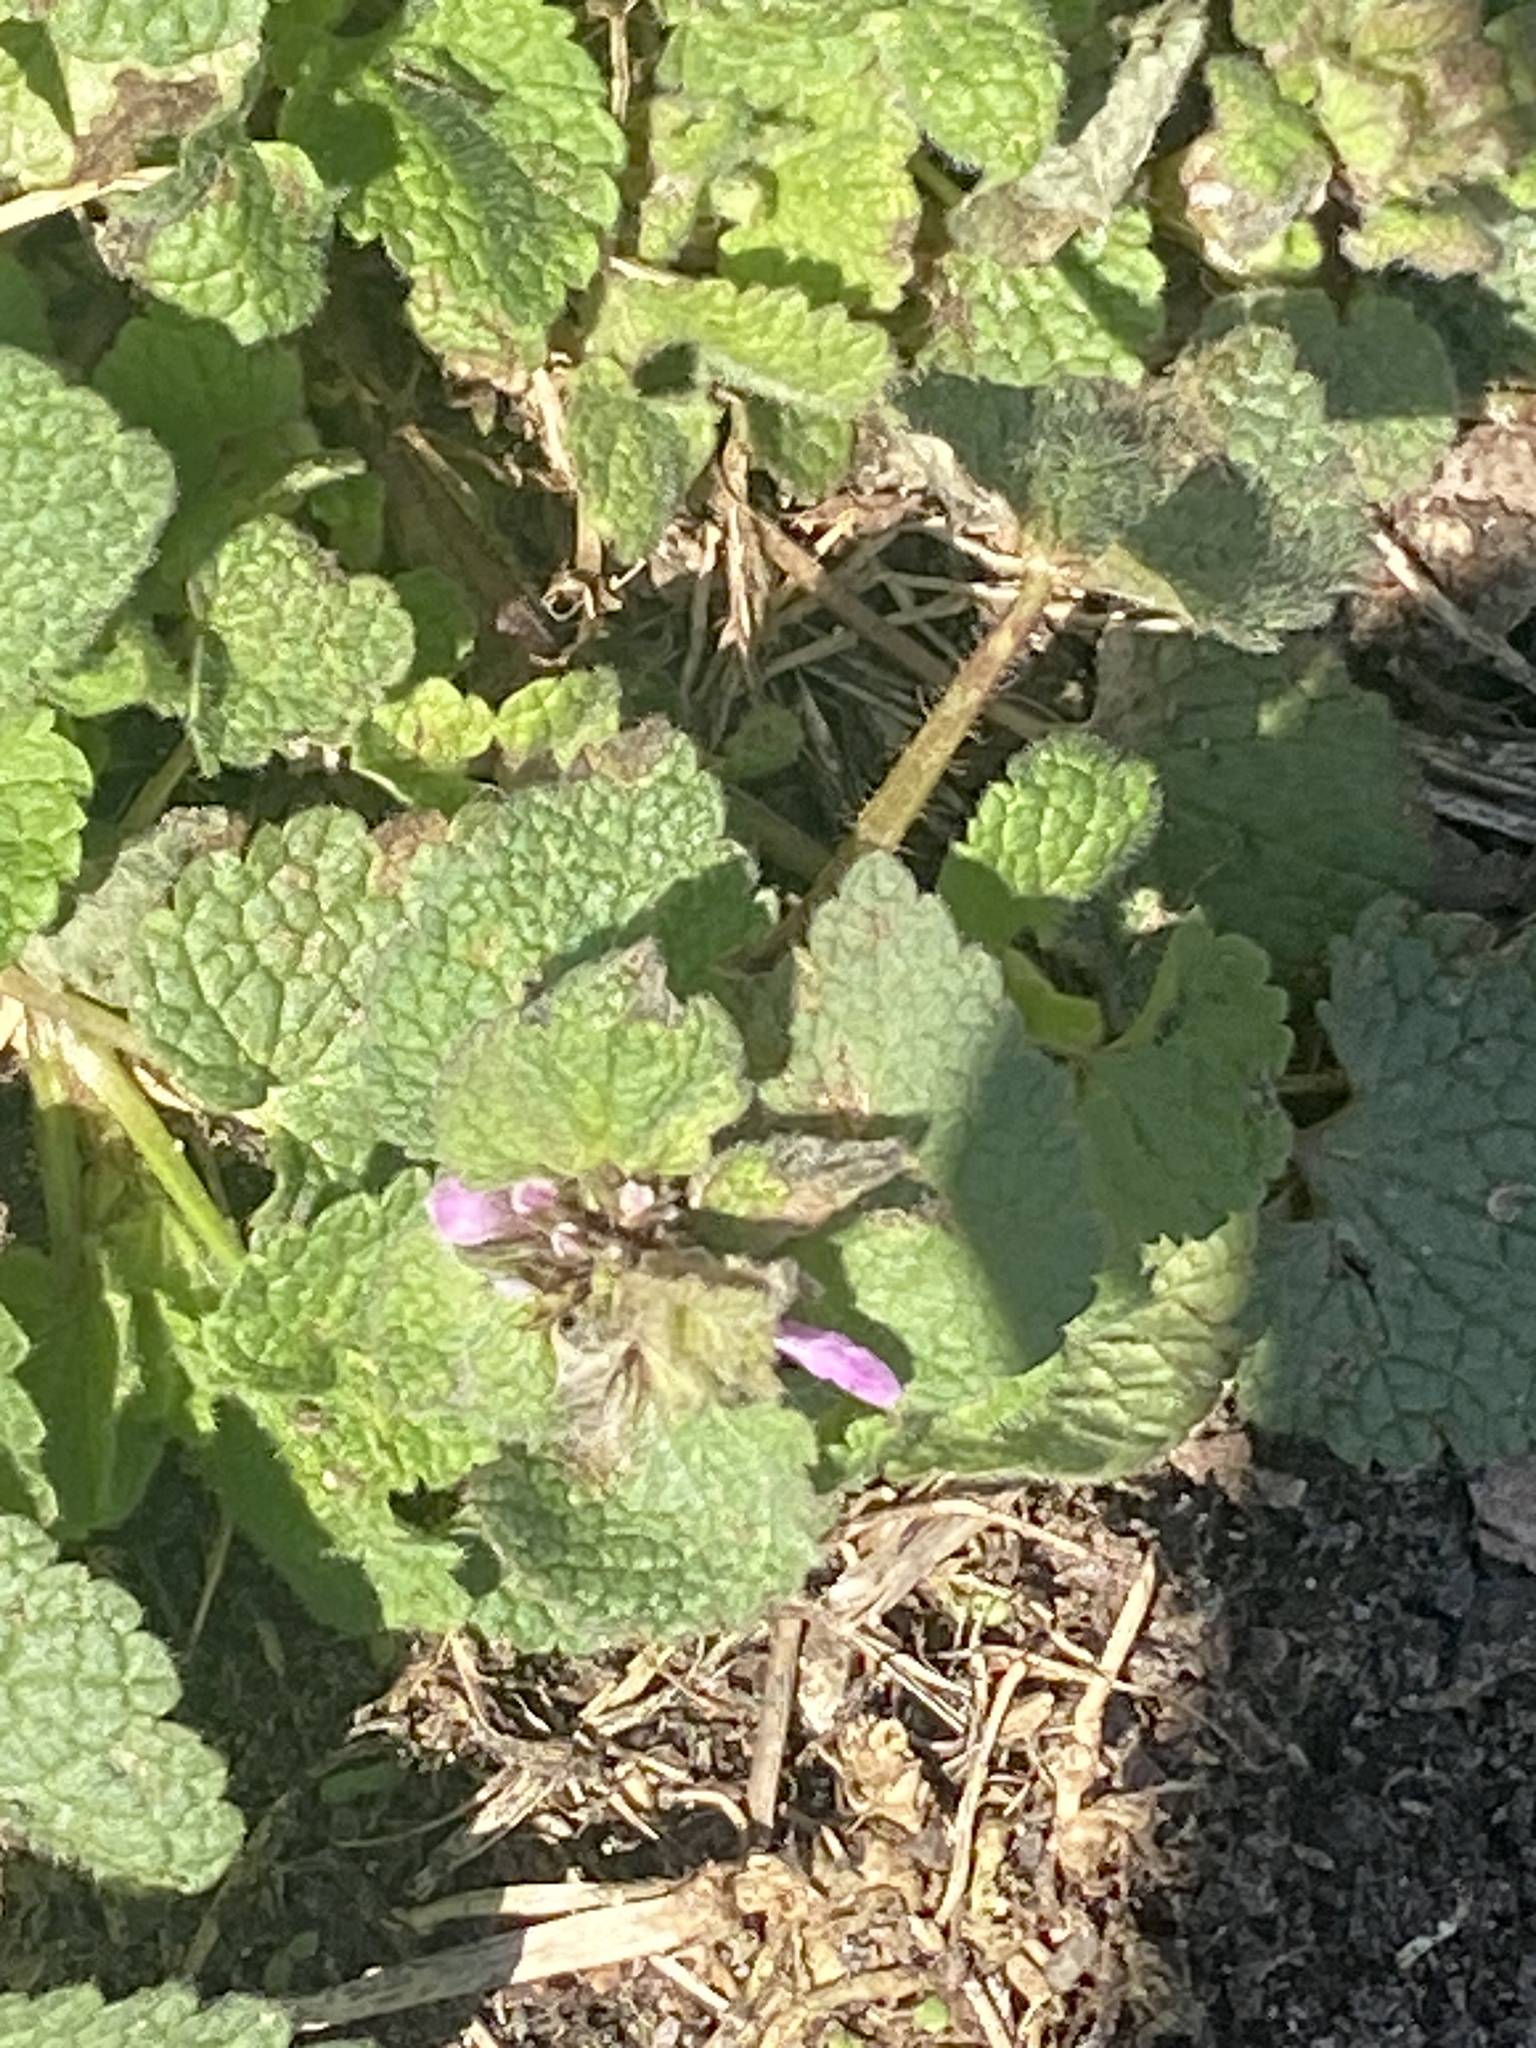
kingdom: Plantae
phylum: Tracheophyta
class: Magnoliopsida
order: Lamiales
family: Lamiaceae
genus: Lamium
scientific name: Lamium purpureum
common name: Red dead-nettle
